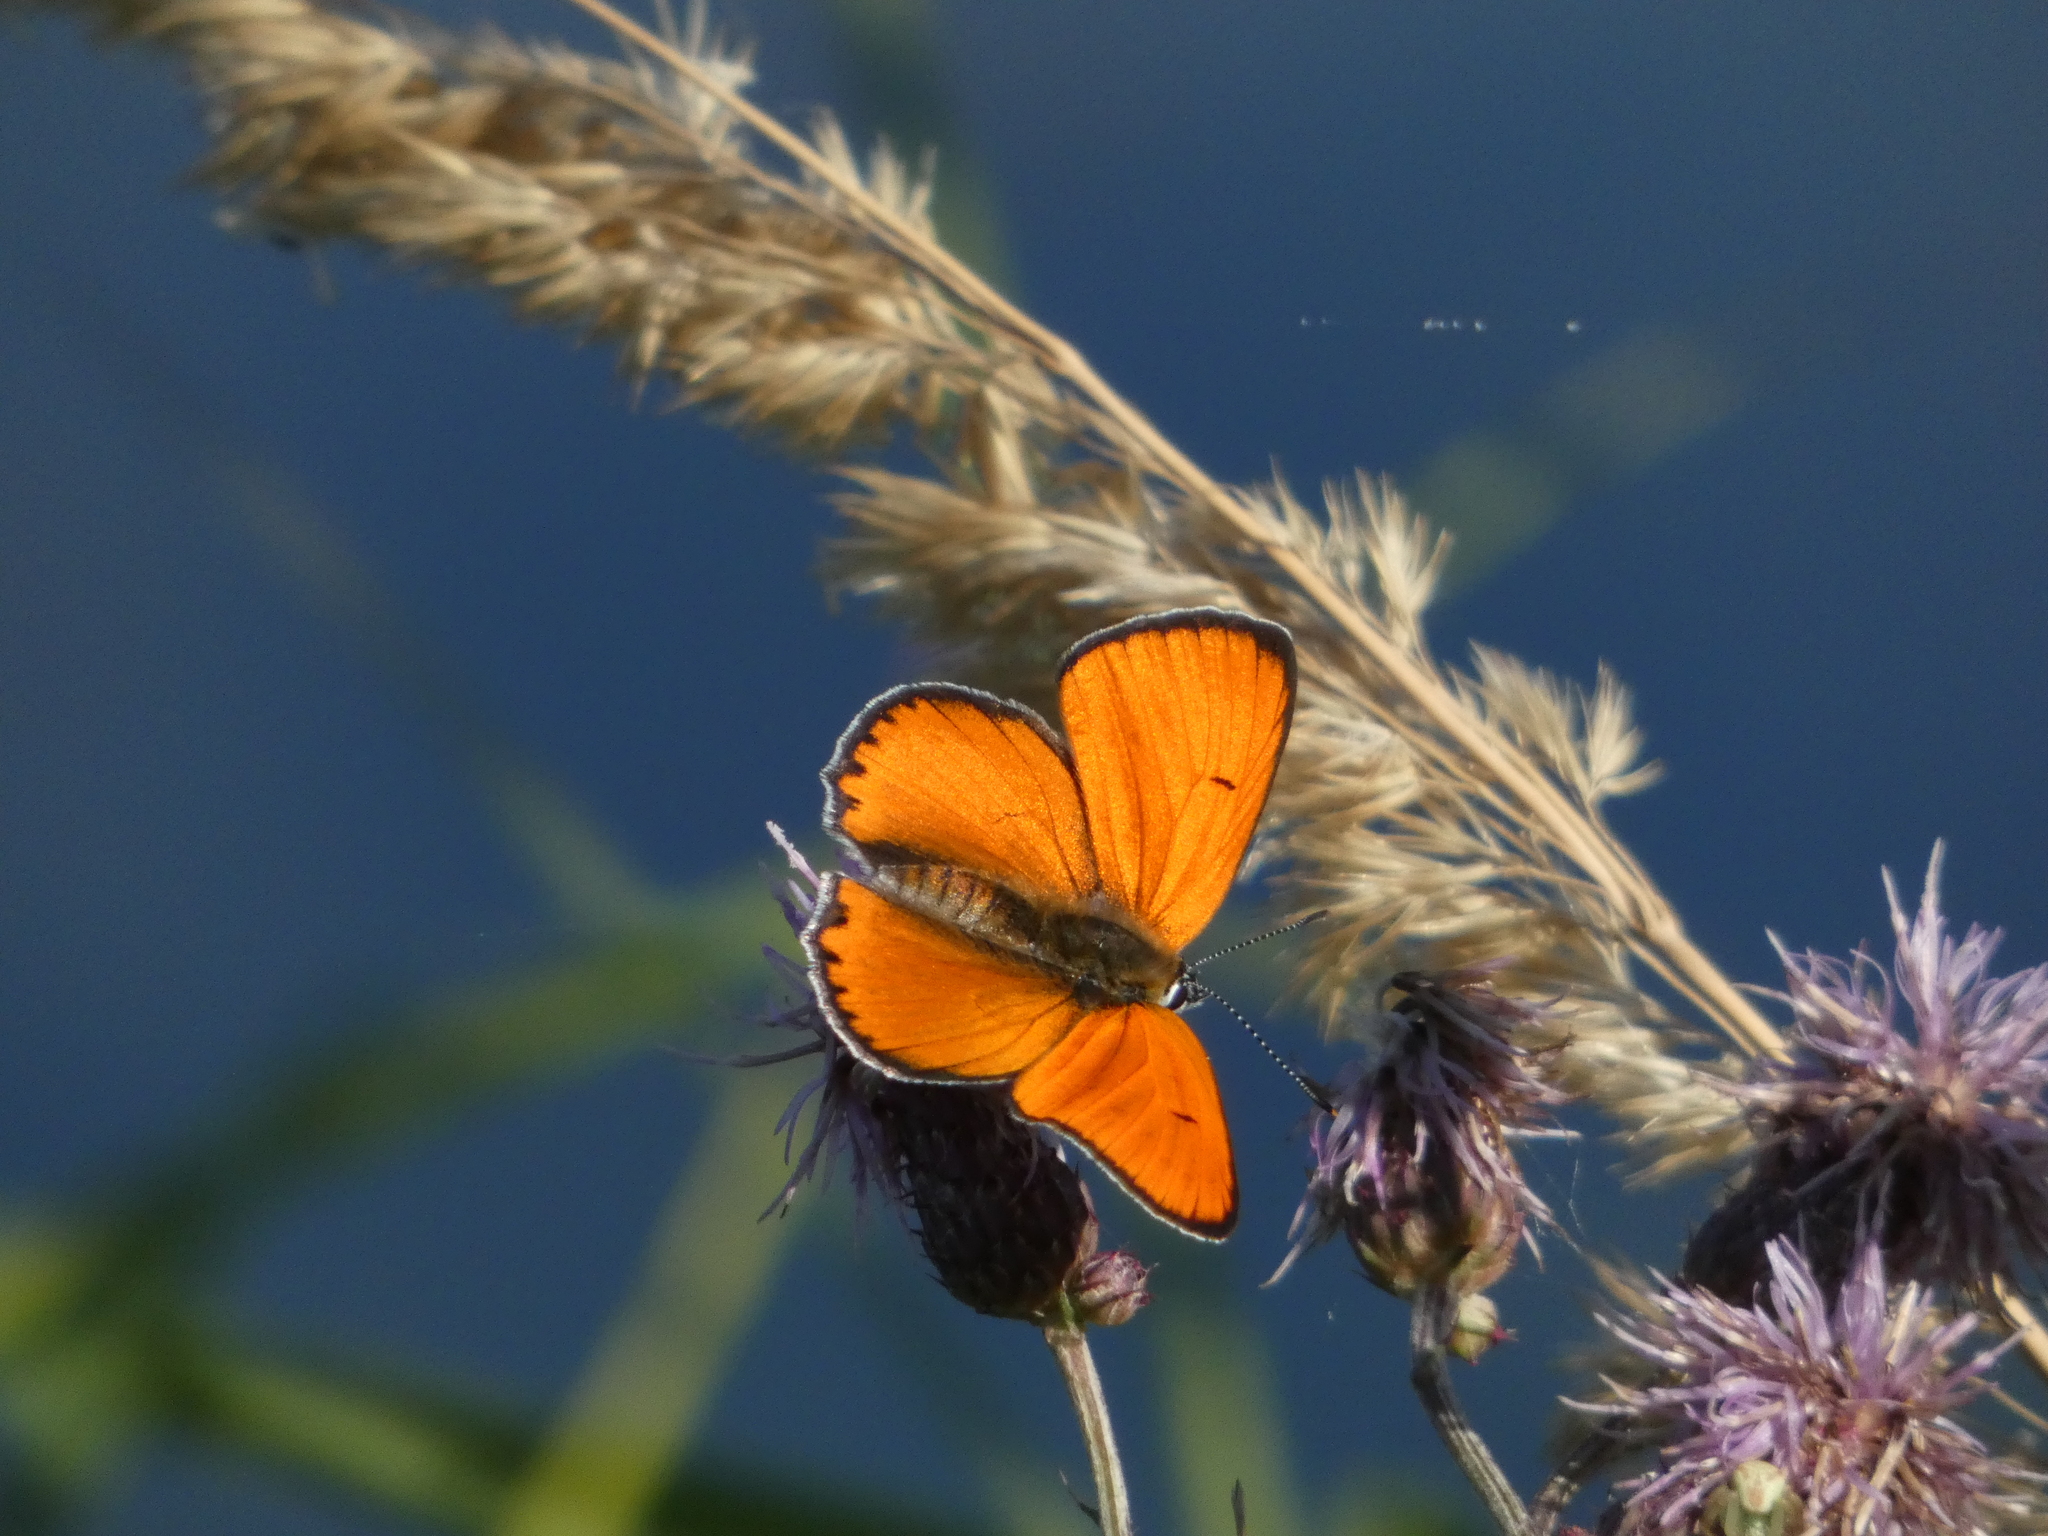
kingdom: Animalia
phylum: Arthropoda
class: Insecta
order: Lepidoptera
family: Lycaenidae
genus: Lycaena
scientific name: Lycaena dispar
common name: Large copper
